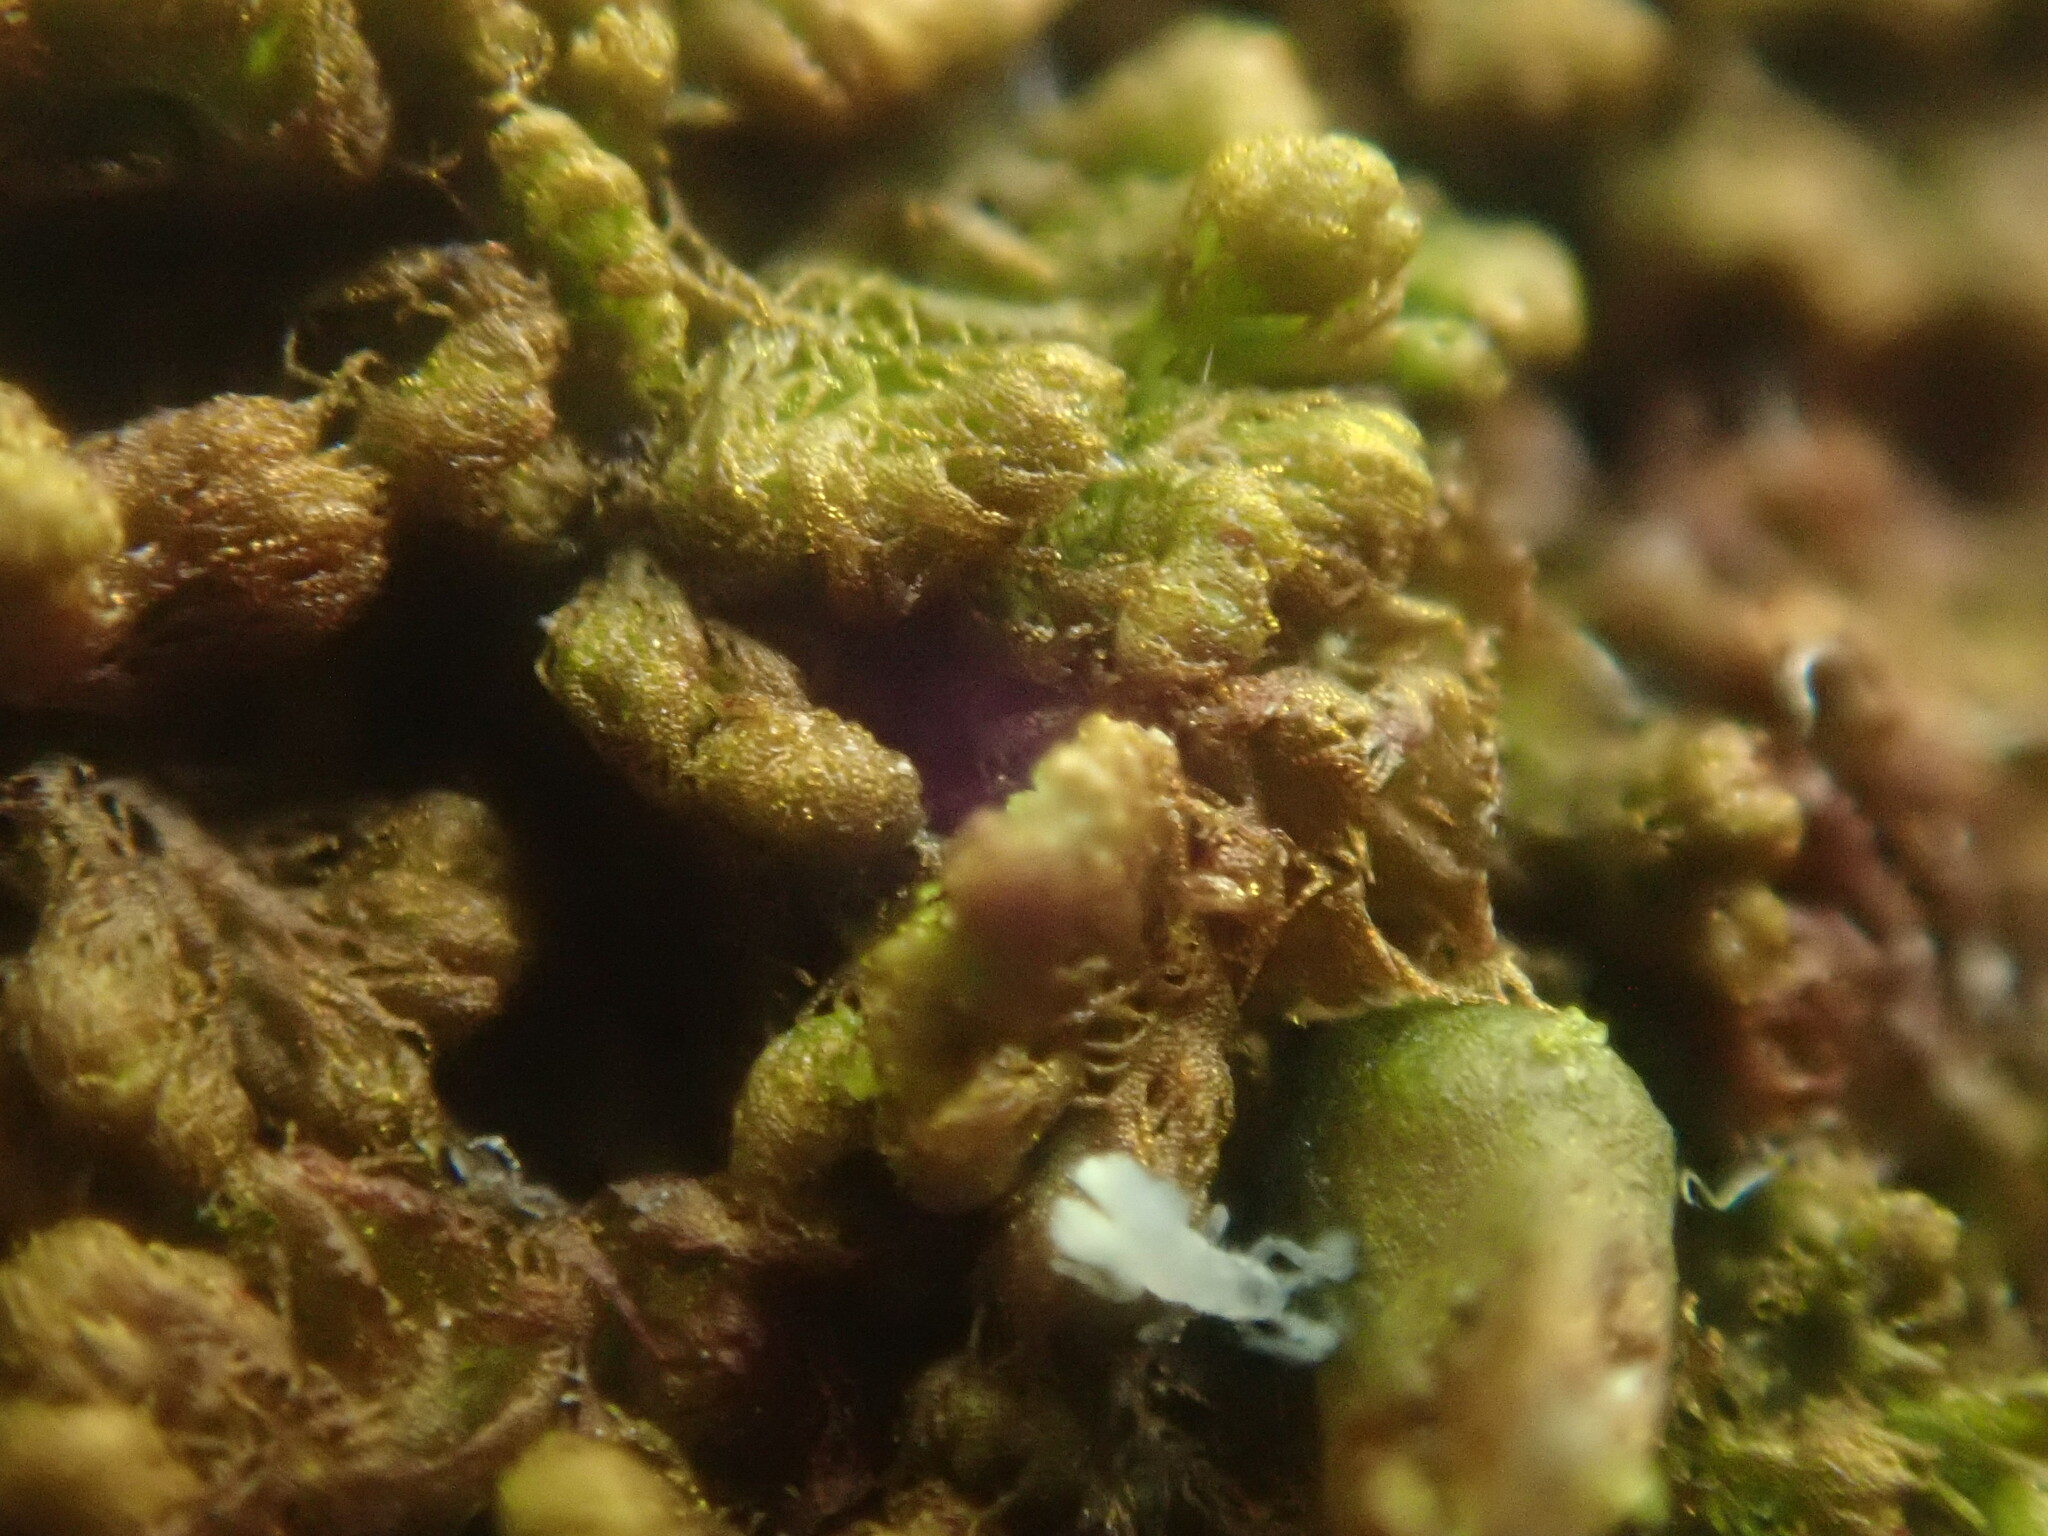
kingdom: Plantae
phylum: Marchantiophyta
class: Jungermanniopsida
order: Ptilidiales
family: Ptilidiaceae
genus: Ptilidium
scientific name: Ptilidium pulcherrimum
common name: Tree fringewort
